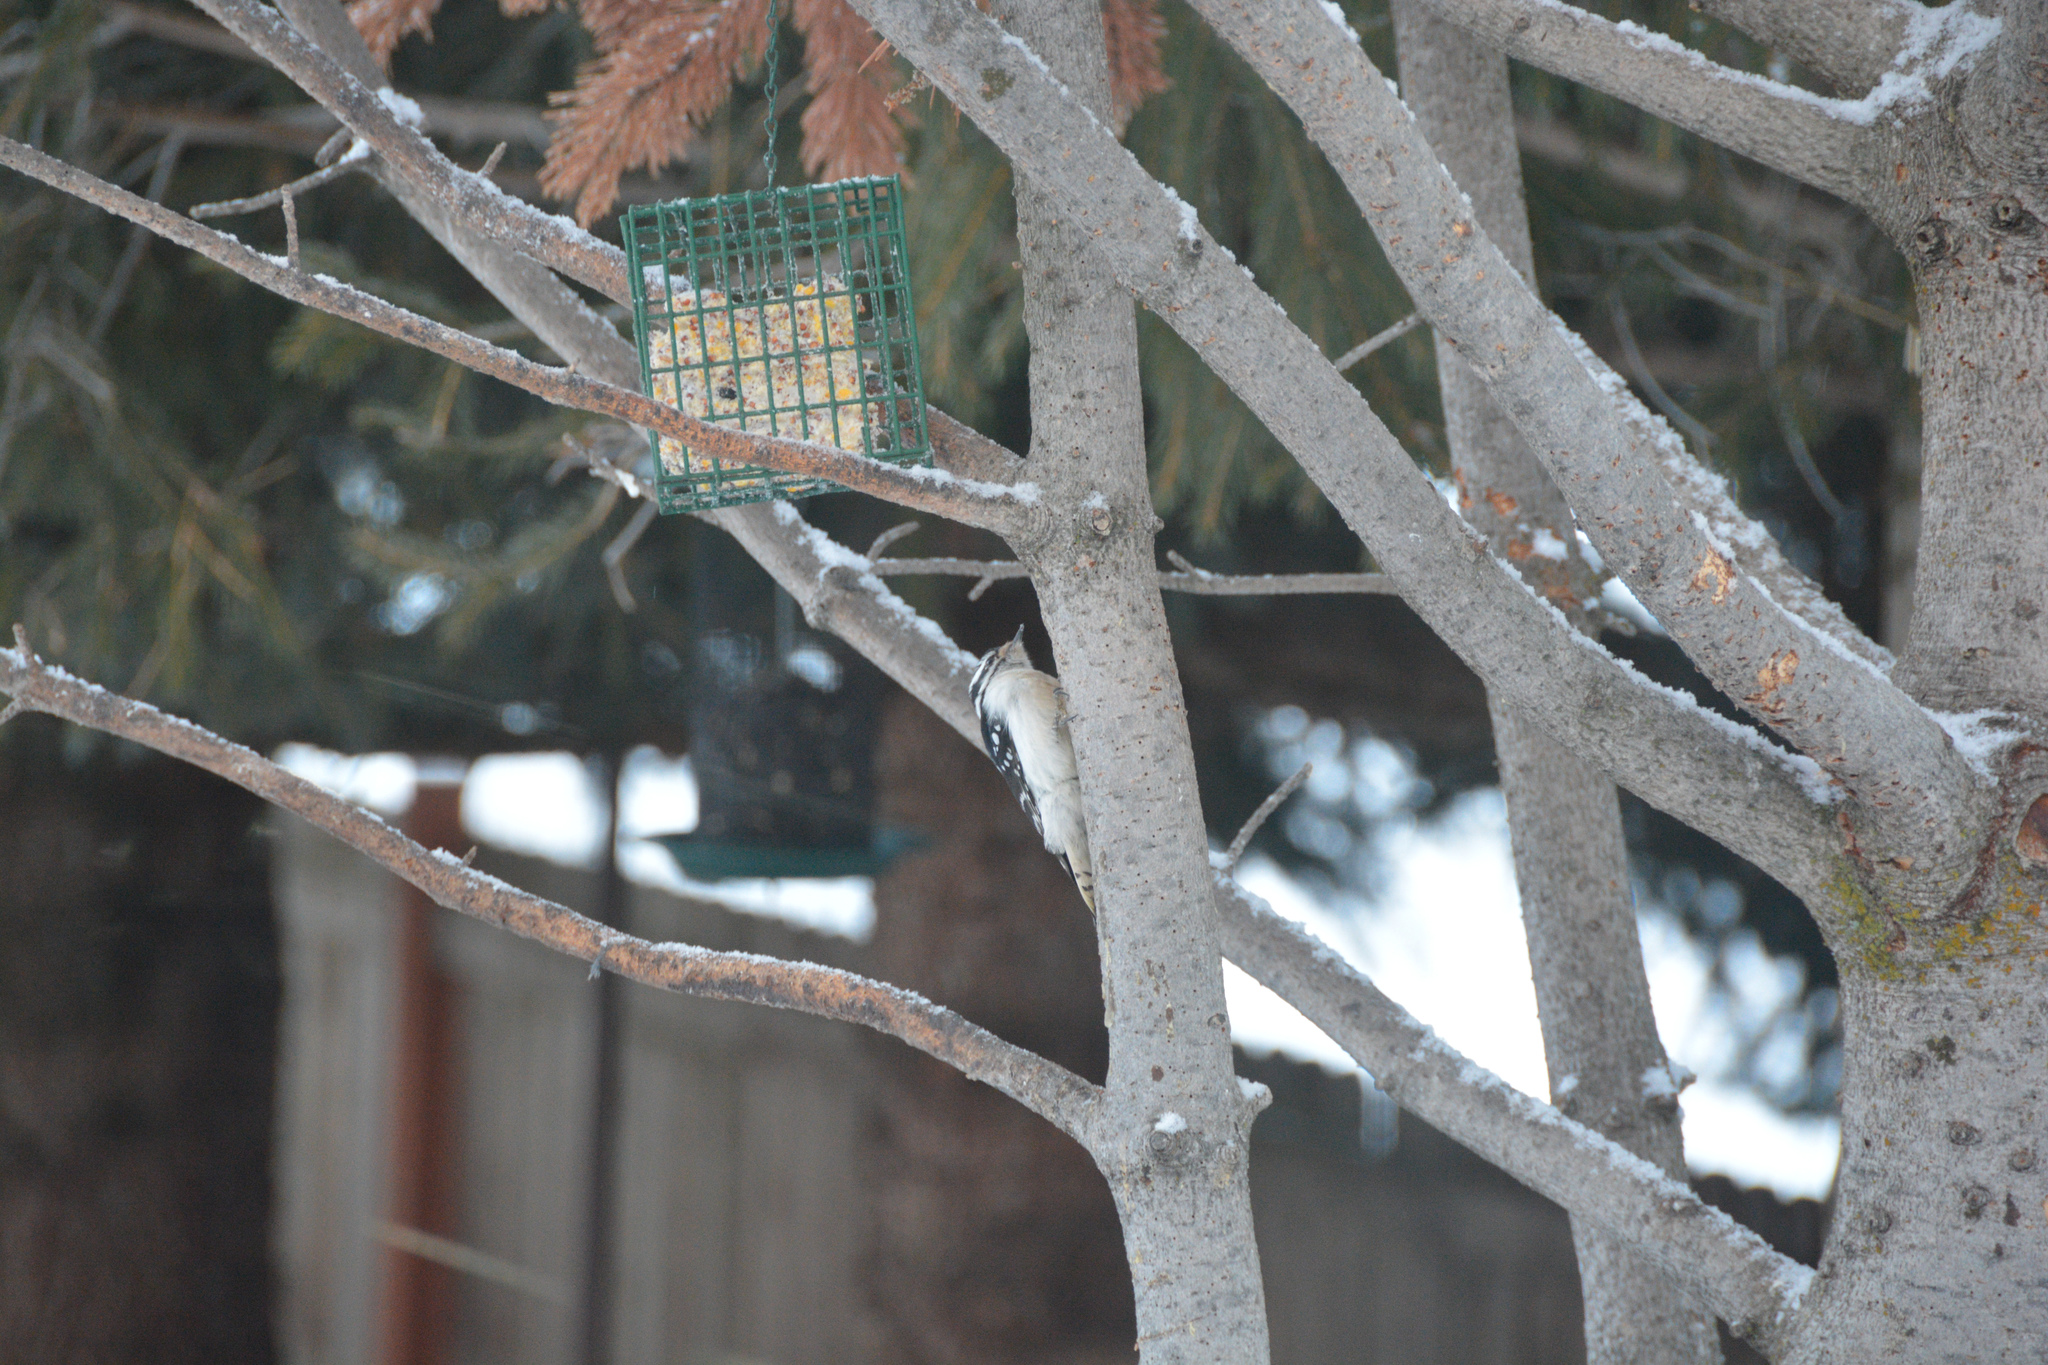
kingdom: Animalia
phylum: Chordata
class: Aves
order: Piciformes
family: Picidae
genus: Dryobates
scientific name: Dryobates pubescens
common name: Downy woodpecker
